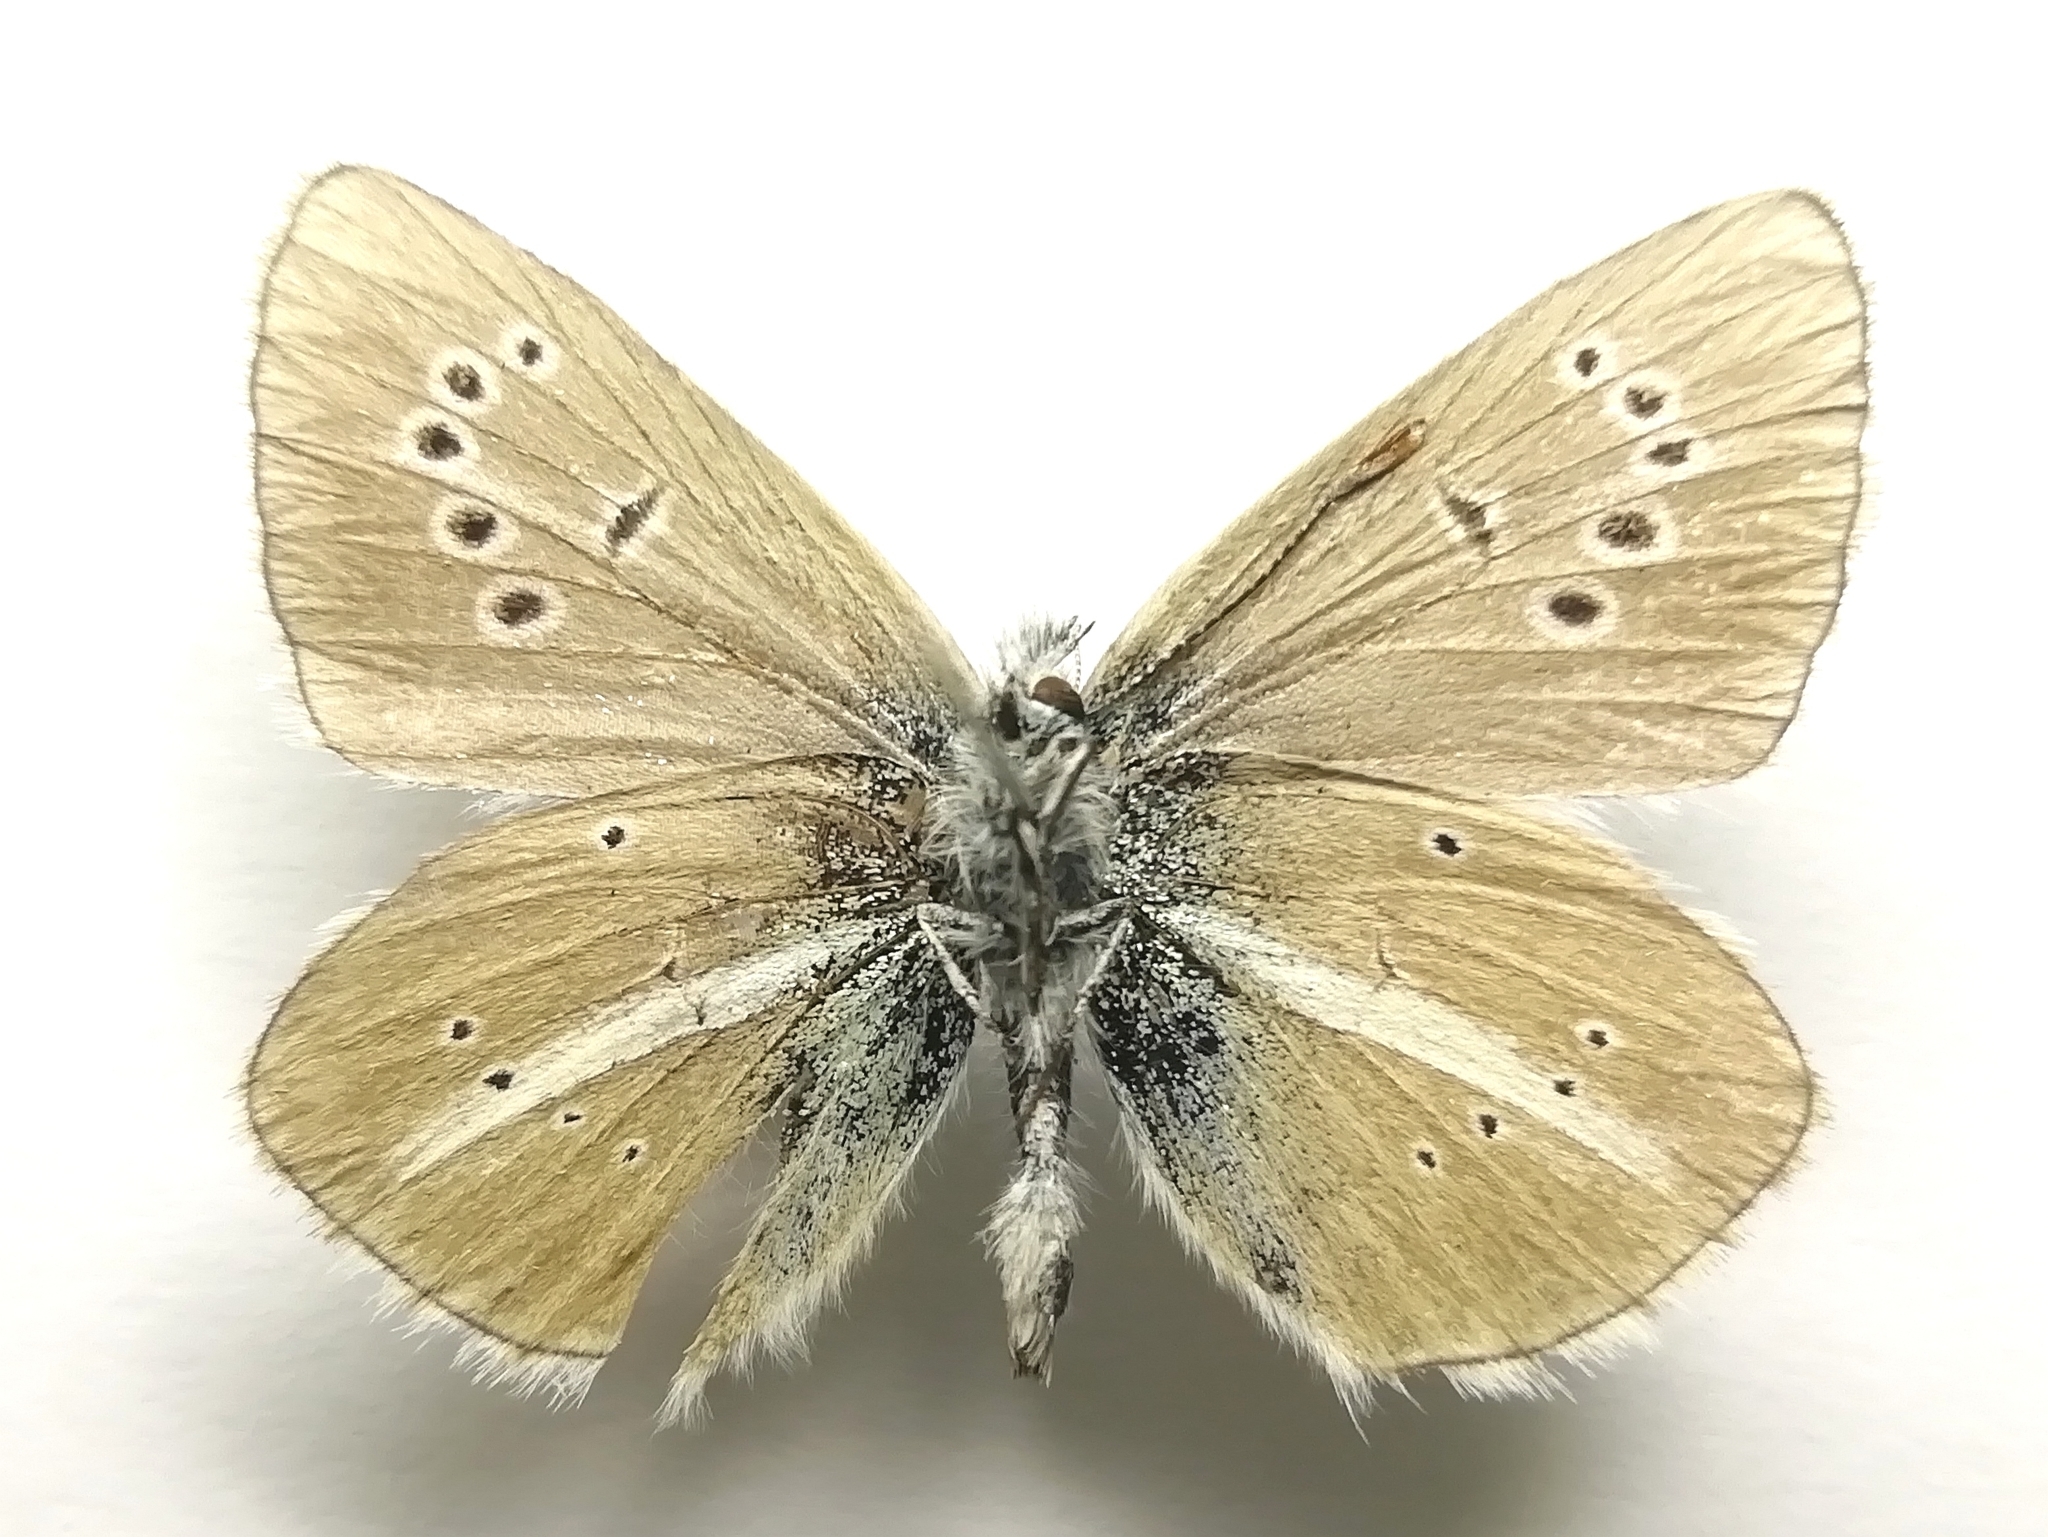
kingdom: Animalia
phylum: Arthropoda
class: Insecta
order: Lepidoptera
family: Lycaenidae
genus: Agrodiaetus
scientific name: Agrodiaetus damon
